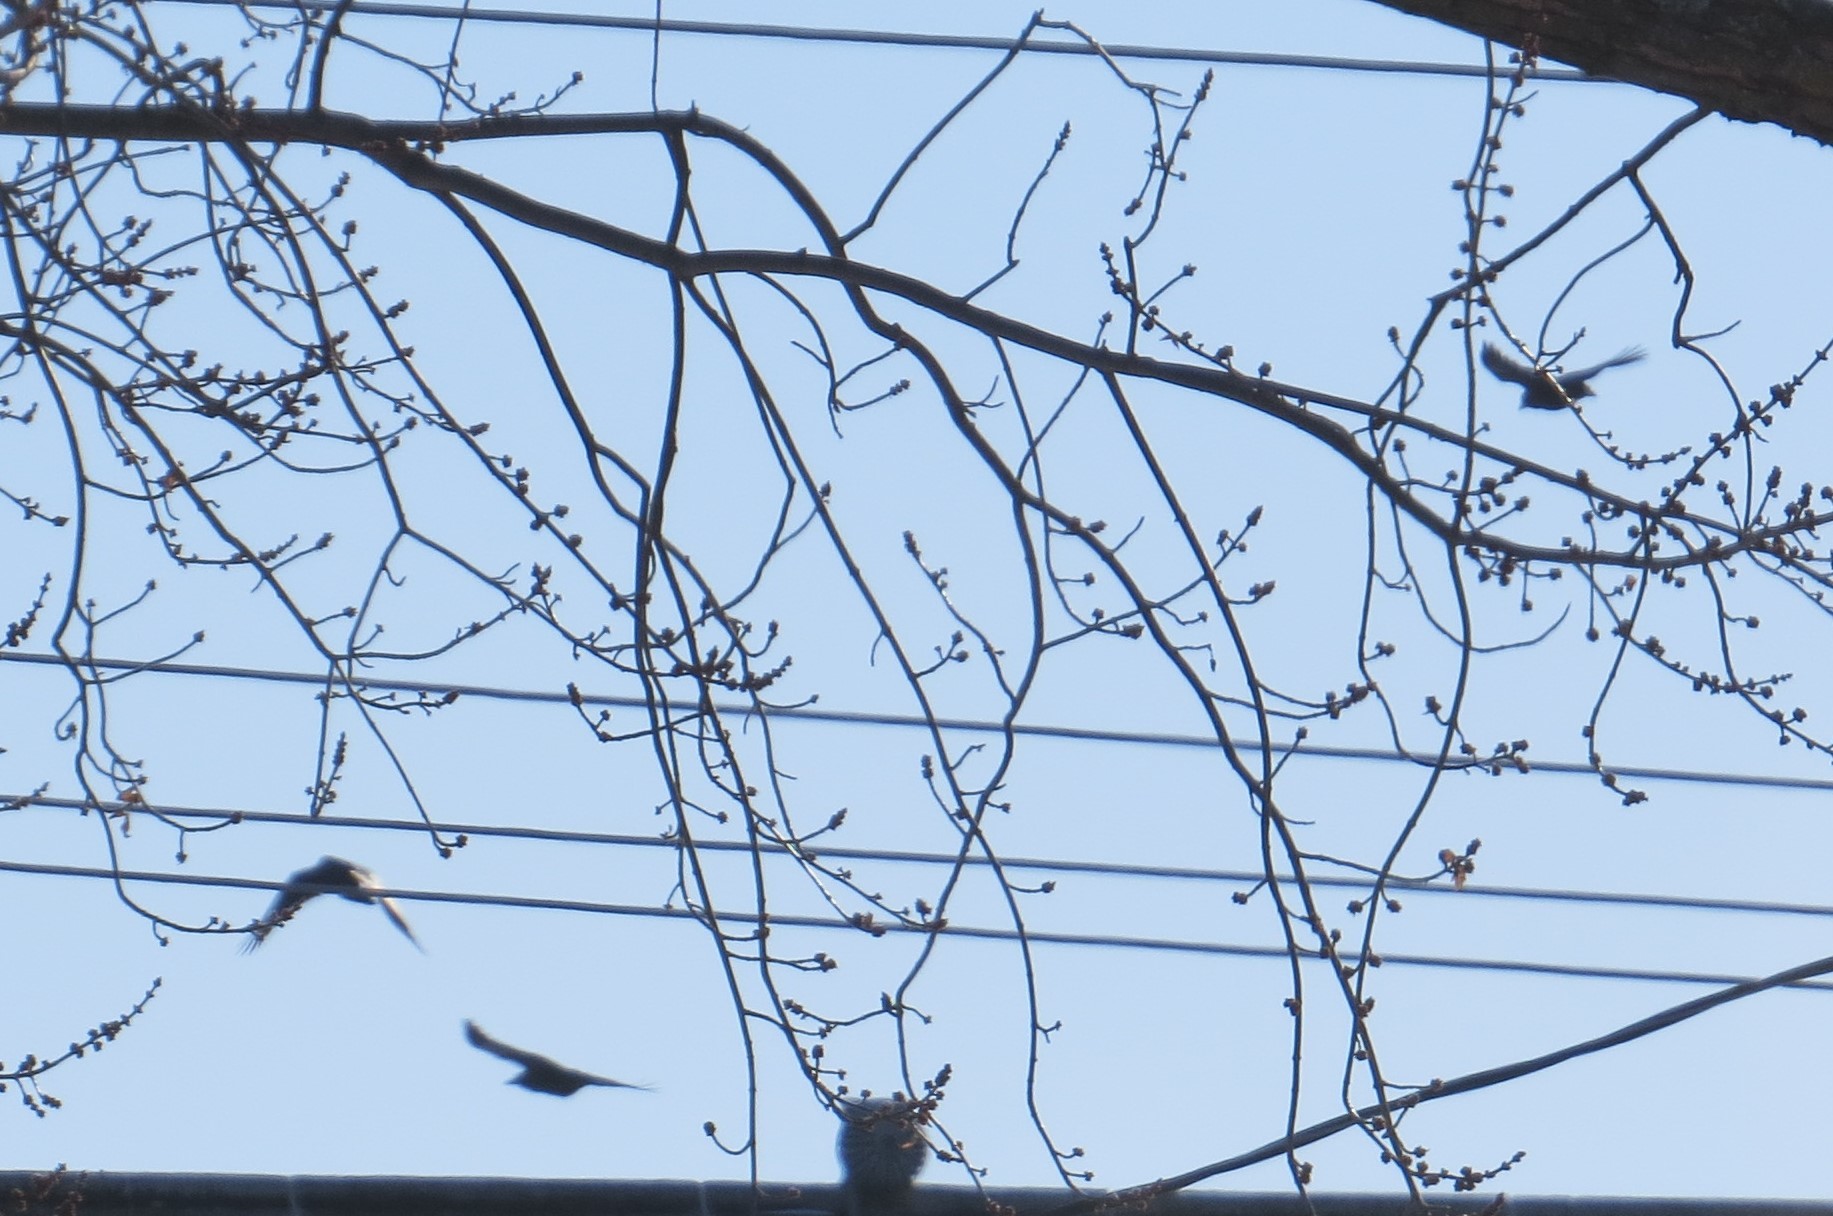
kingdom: Animalia
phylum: Chordata
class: Aves
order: Passeriformes
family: Corvidae
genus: Corvus
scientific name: Corvus brachyrhynchos
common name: American crow
